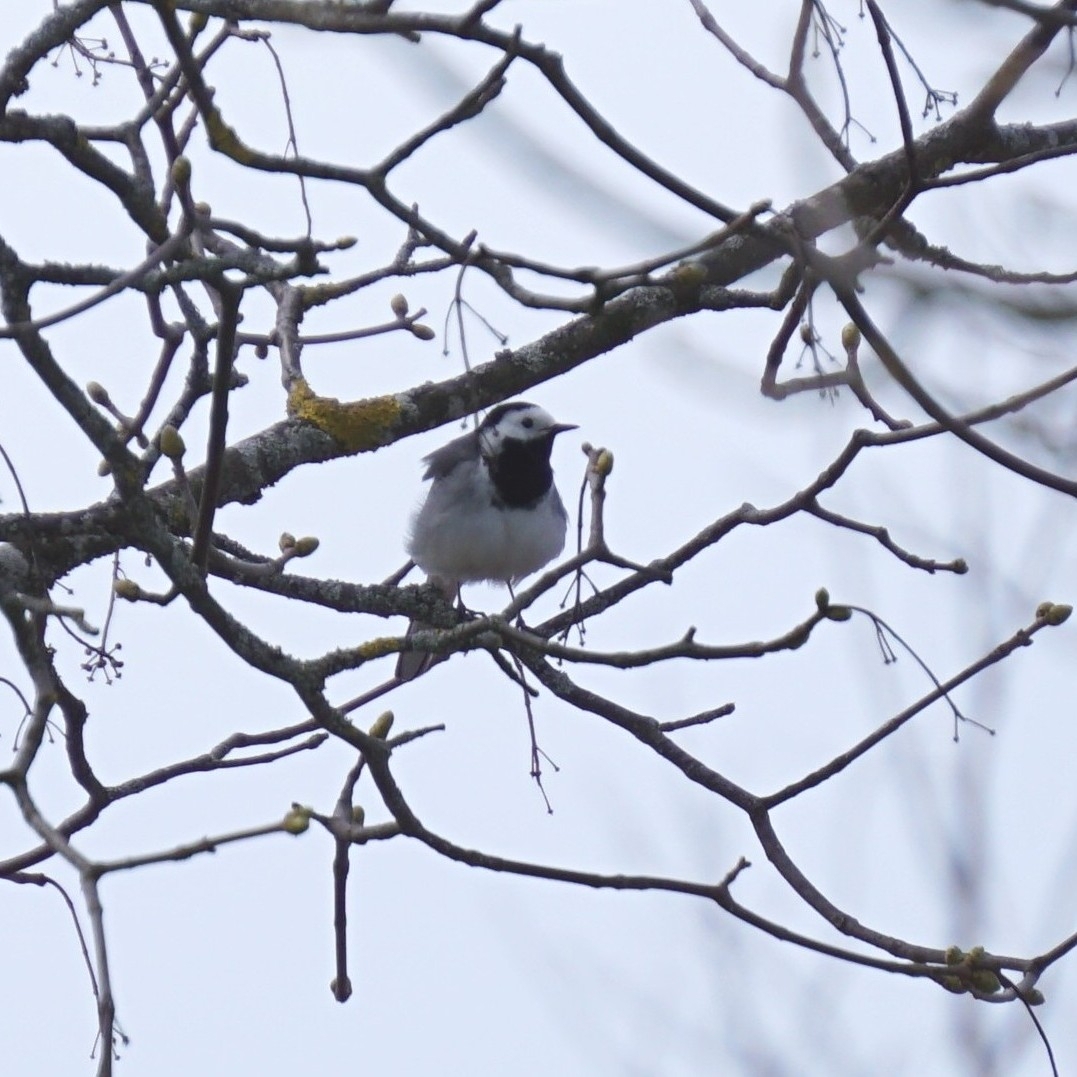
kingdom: Animalia
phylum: Chordata
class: Aves
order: Passeriformes
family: Motacillidae
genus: Motacilla
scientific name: Motacilla alba
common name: White wagtail
